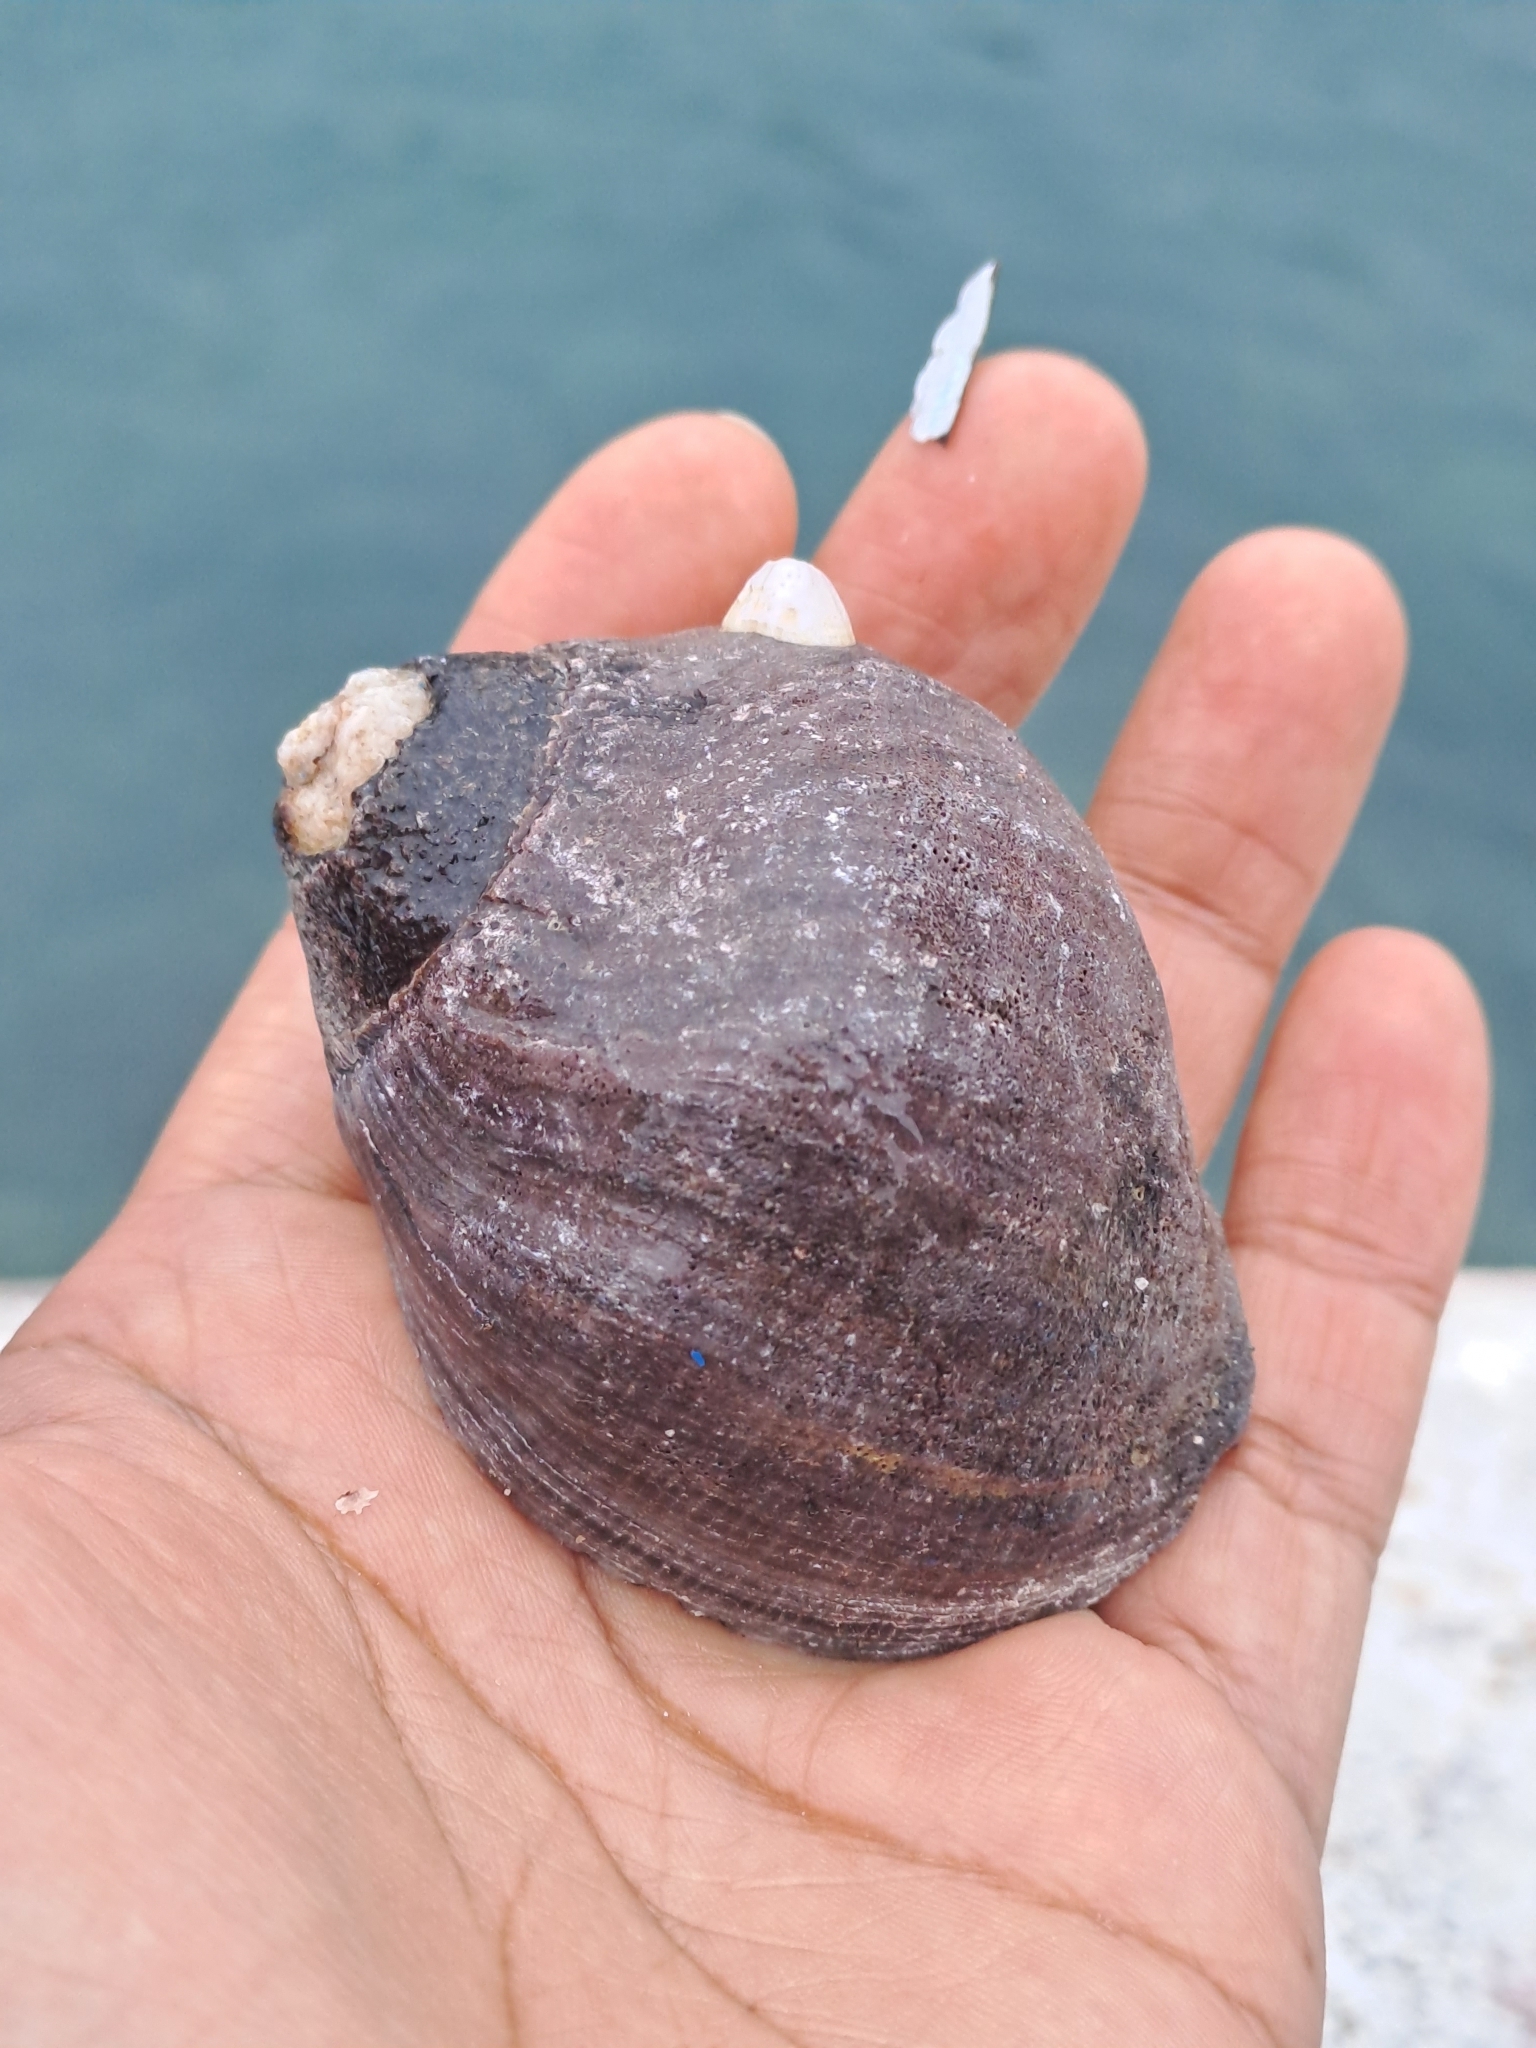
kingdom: Animalia
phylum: Mollusca
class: Gastropoda
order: Neogastropoda
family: Muricidae
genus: Thaisella
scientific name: Thaisella chocolata
